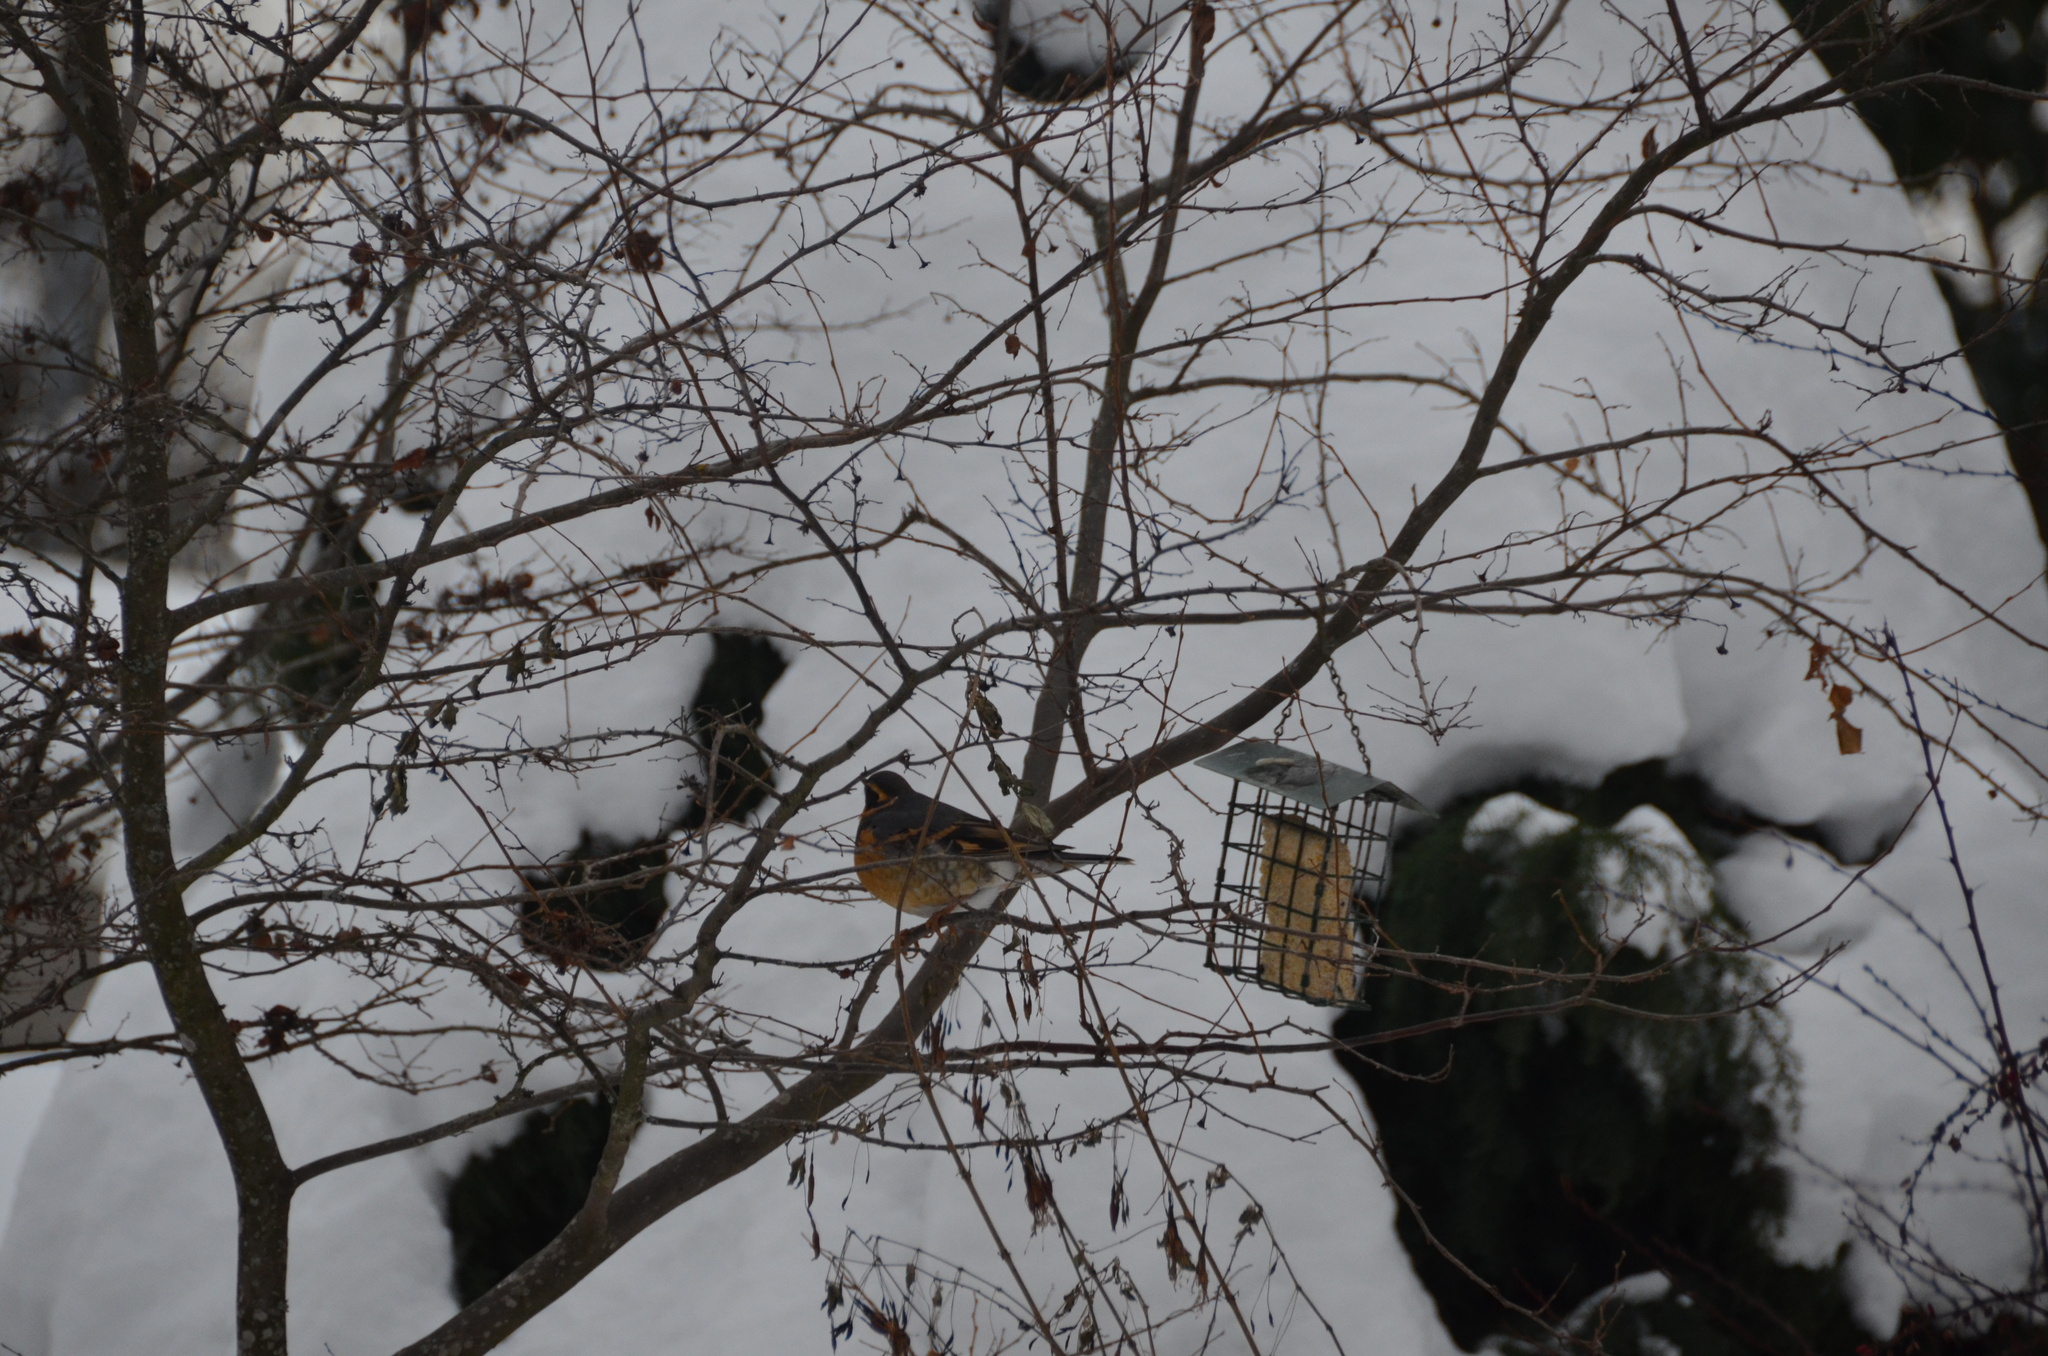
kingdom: Animalia
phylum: Chordata
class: Aves
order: Passeriformes
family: Turdidae
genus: Ixoreus
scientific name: Ixoreus naevius
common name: Varied thrush
